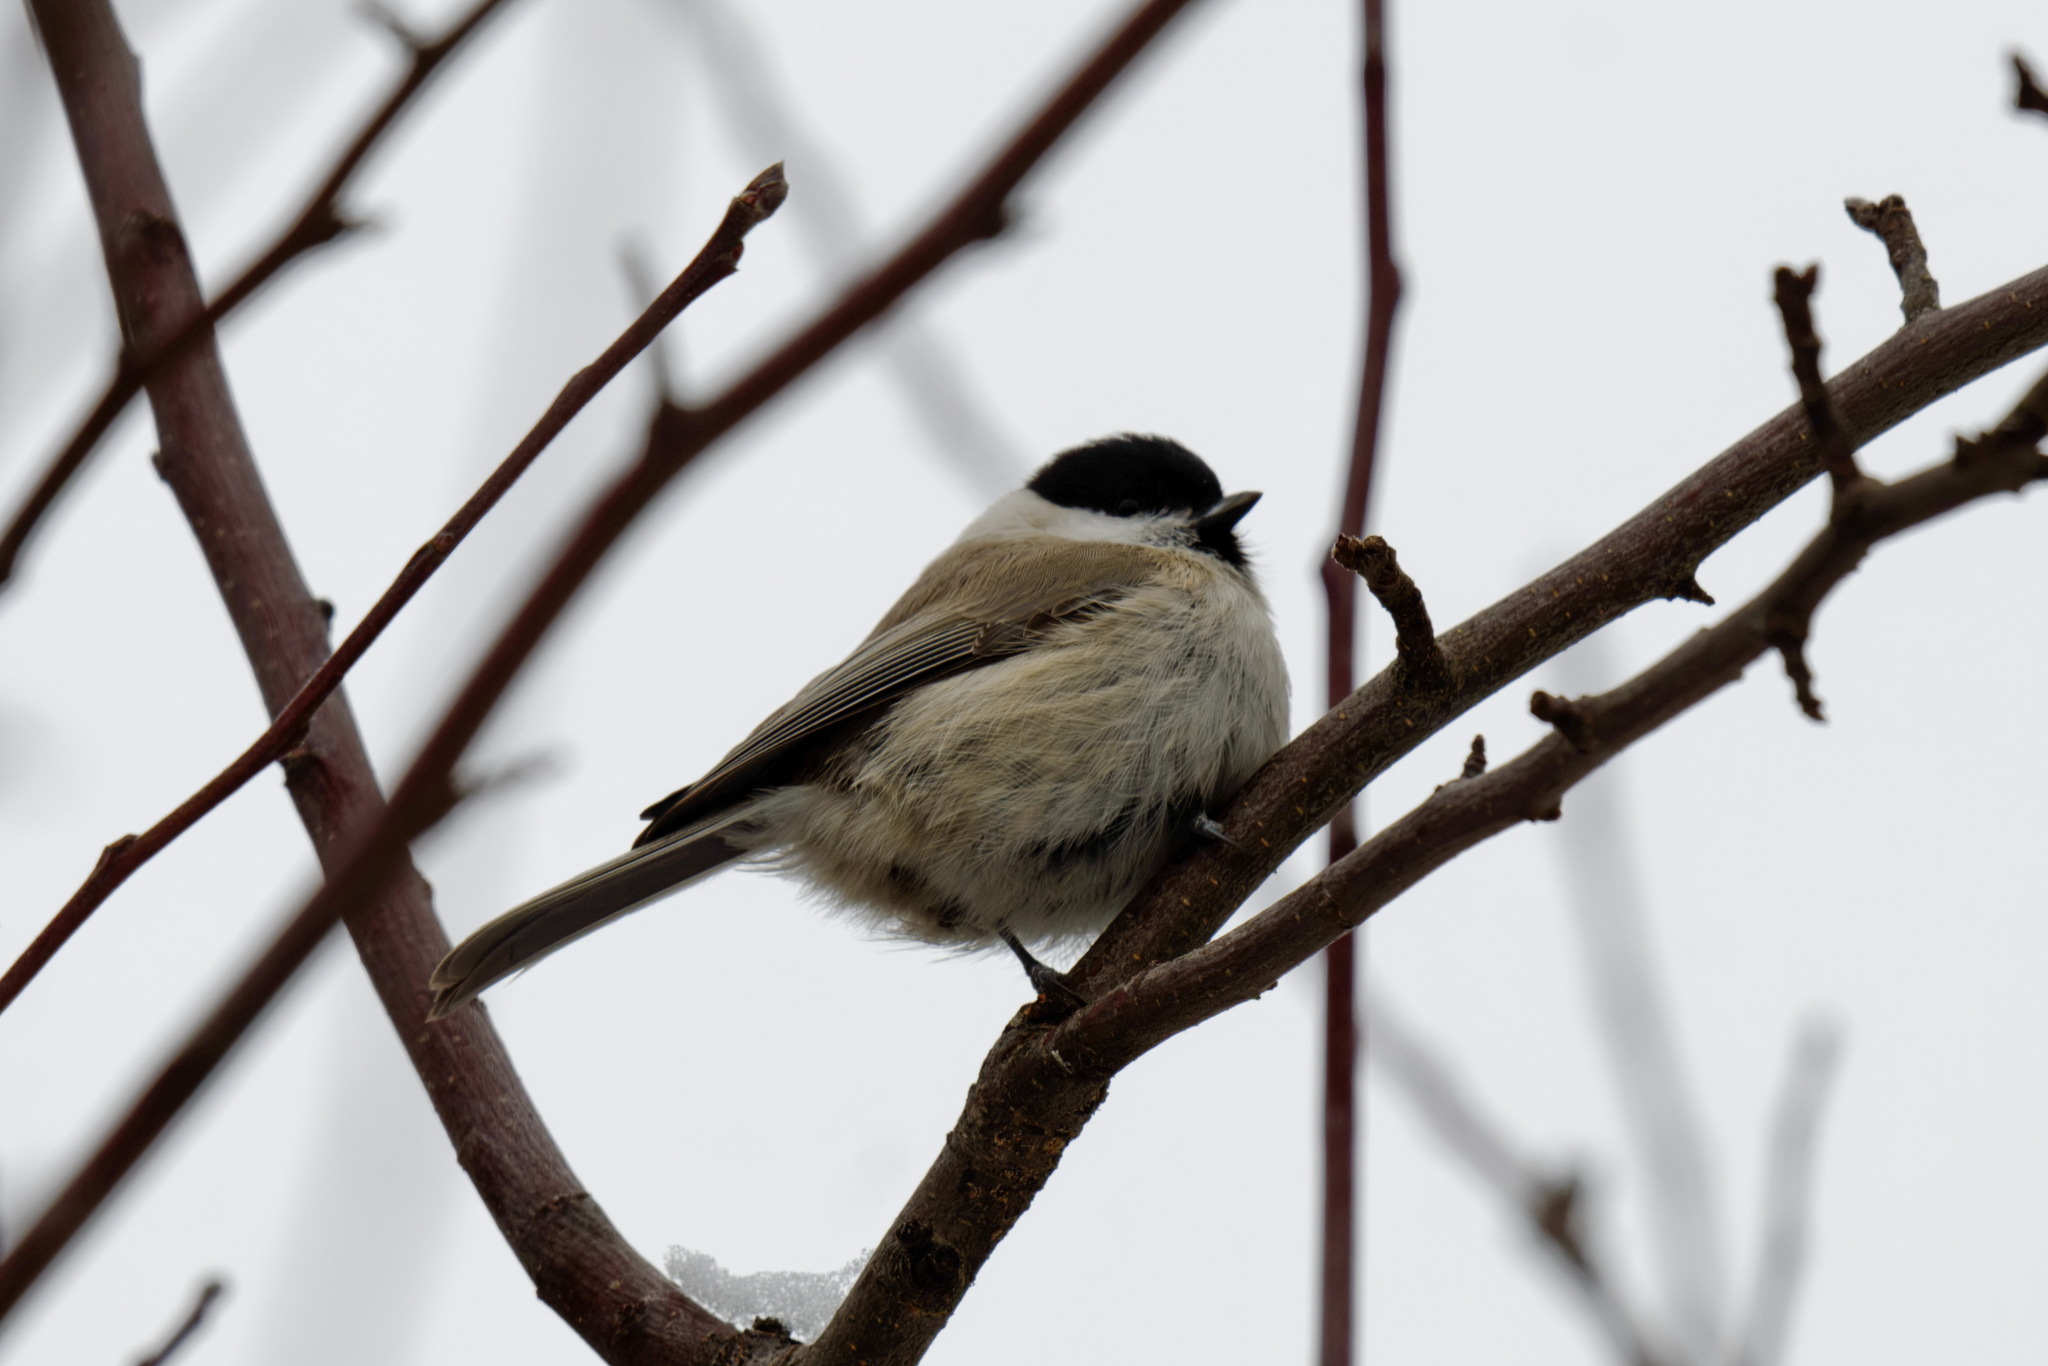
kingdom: Animalia
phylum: Chordata
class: Aves
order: Passeriformes
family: Paridae
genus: Poecile
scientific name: Poecile palustris
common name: Marsh tit
